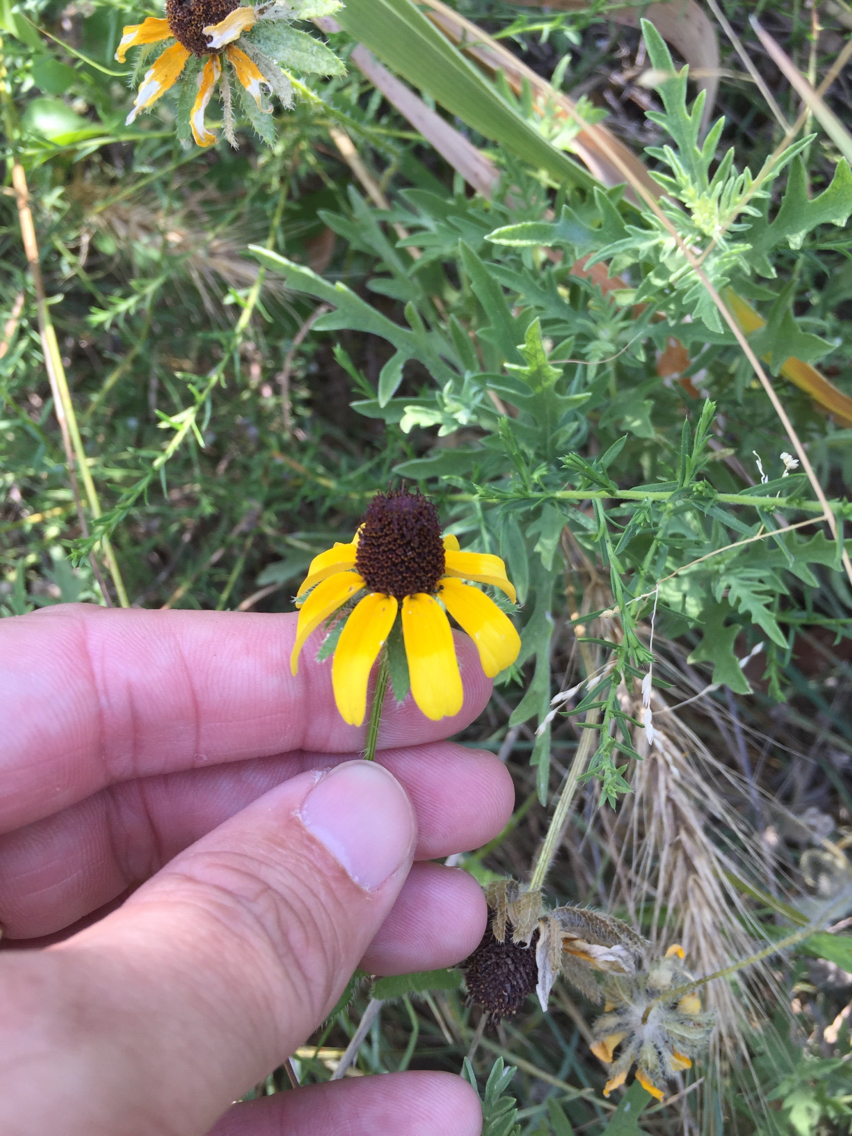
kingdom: Plantae
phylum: Tracheophyta
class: Magnoliopsida
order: Asterales
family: Asteraceae
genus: Rudbeckia
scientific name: Rudbeckia hirta
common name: Black-eyed-susan
